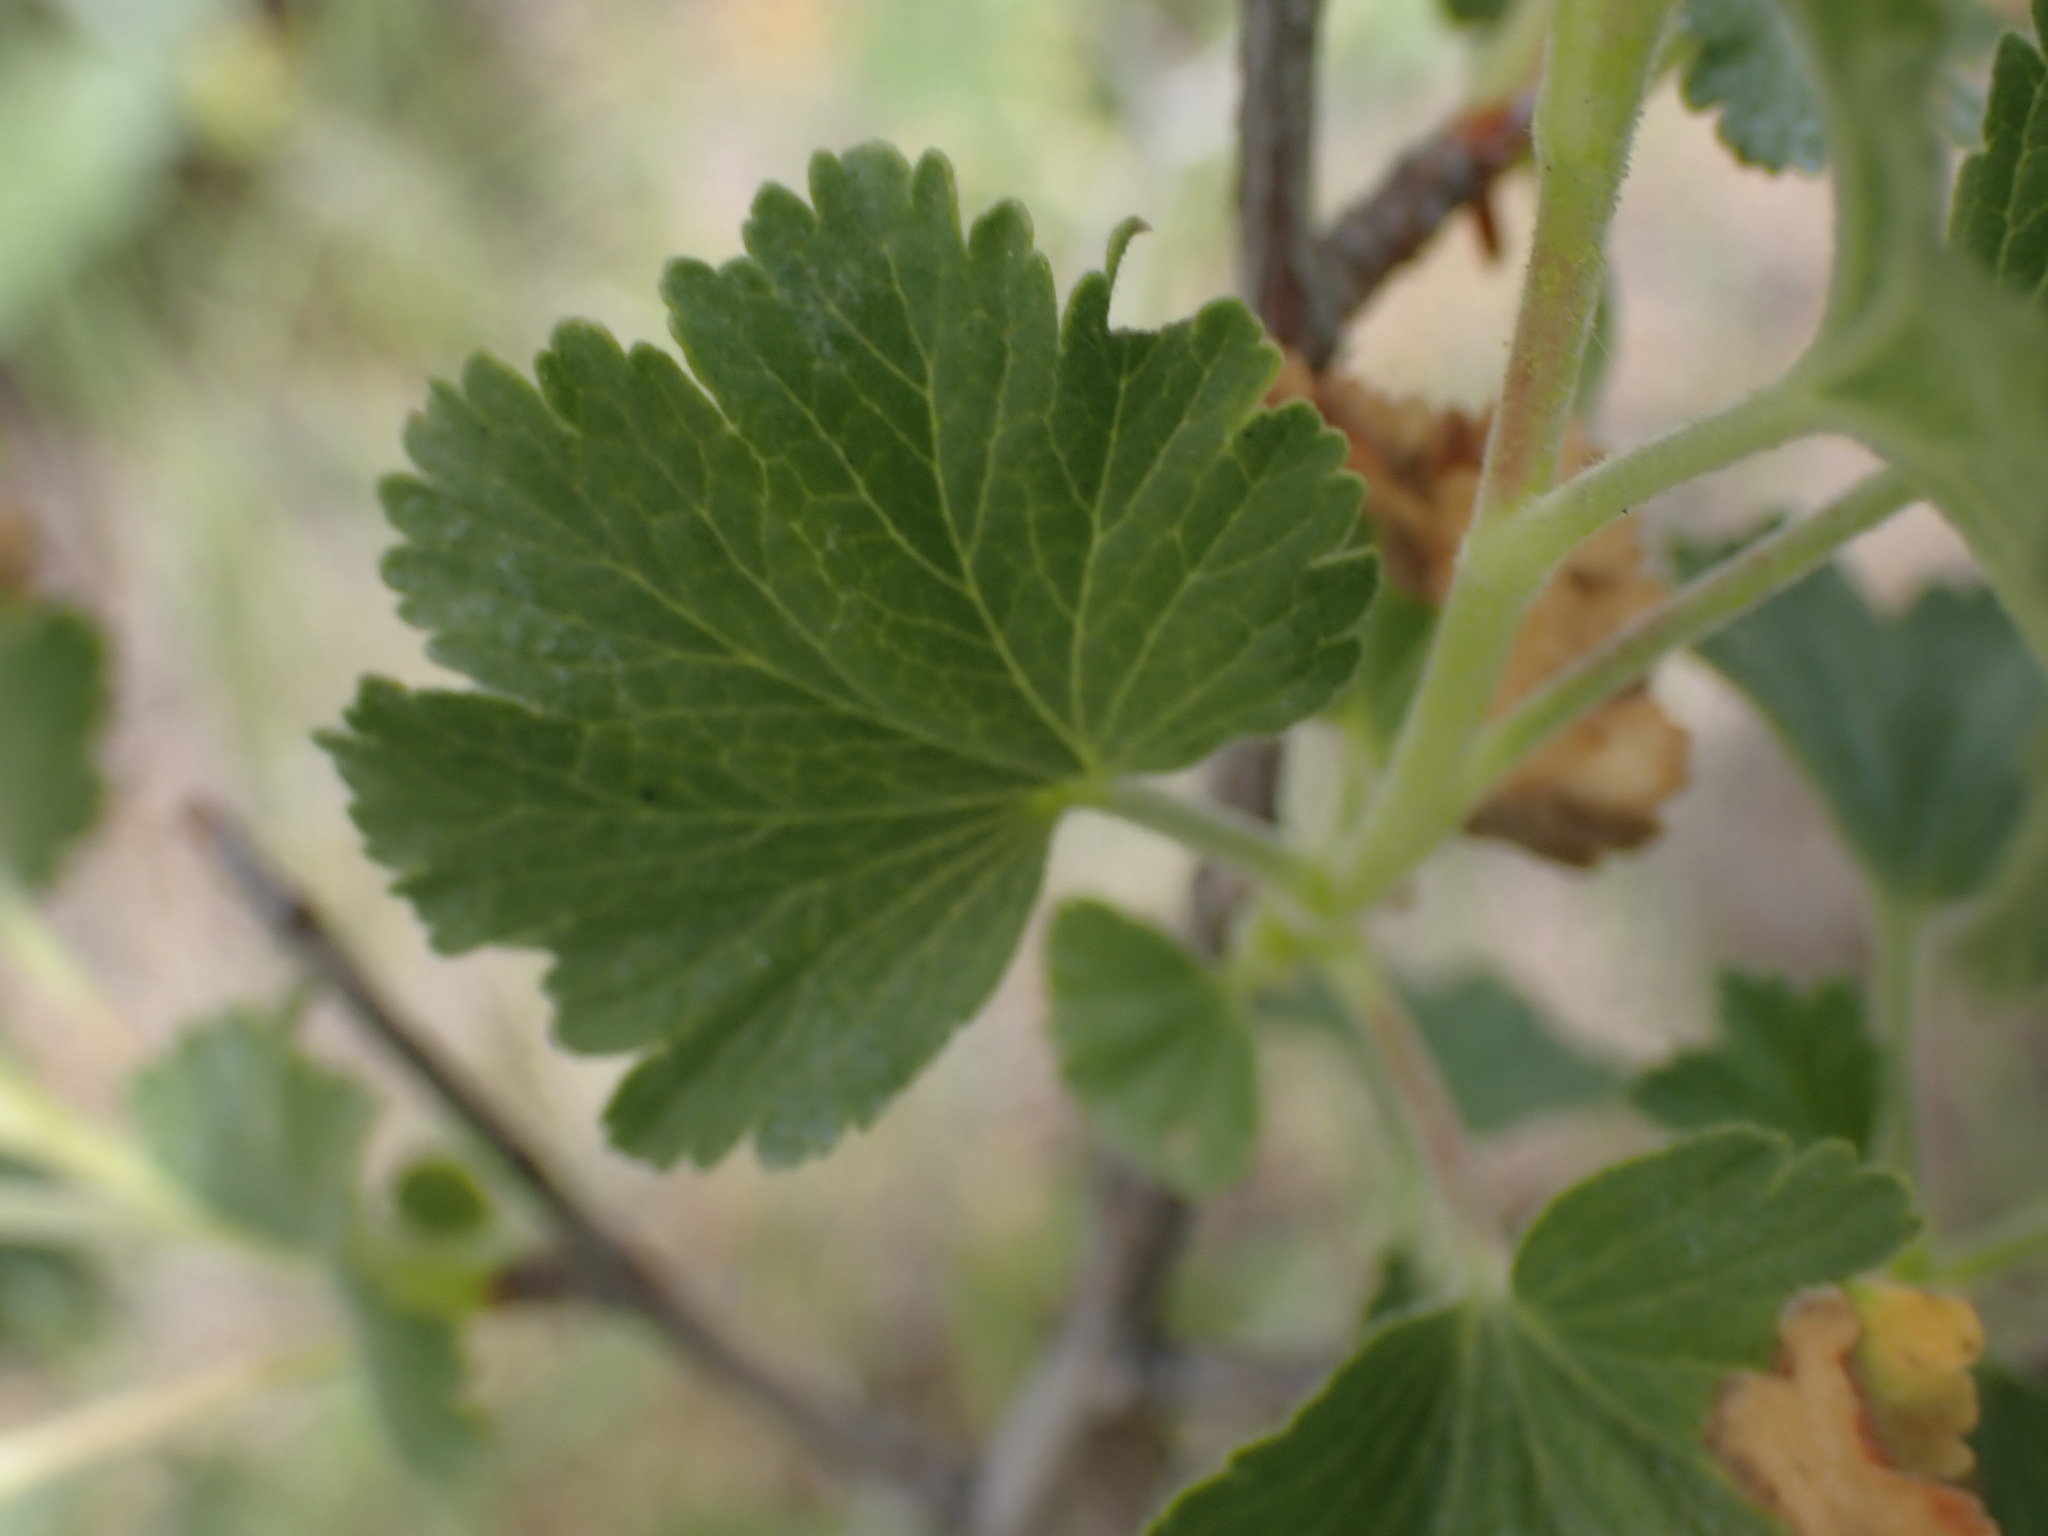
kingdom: Plantae
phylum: Tracheophyta
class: Magnoliopsida
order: Saxifragales
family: Grossulariaceae
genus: Ribes
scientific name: Ribes cereum
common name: Wax currant
